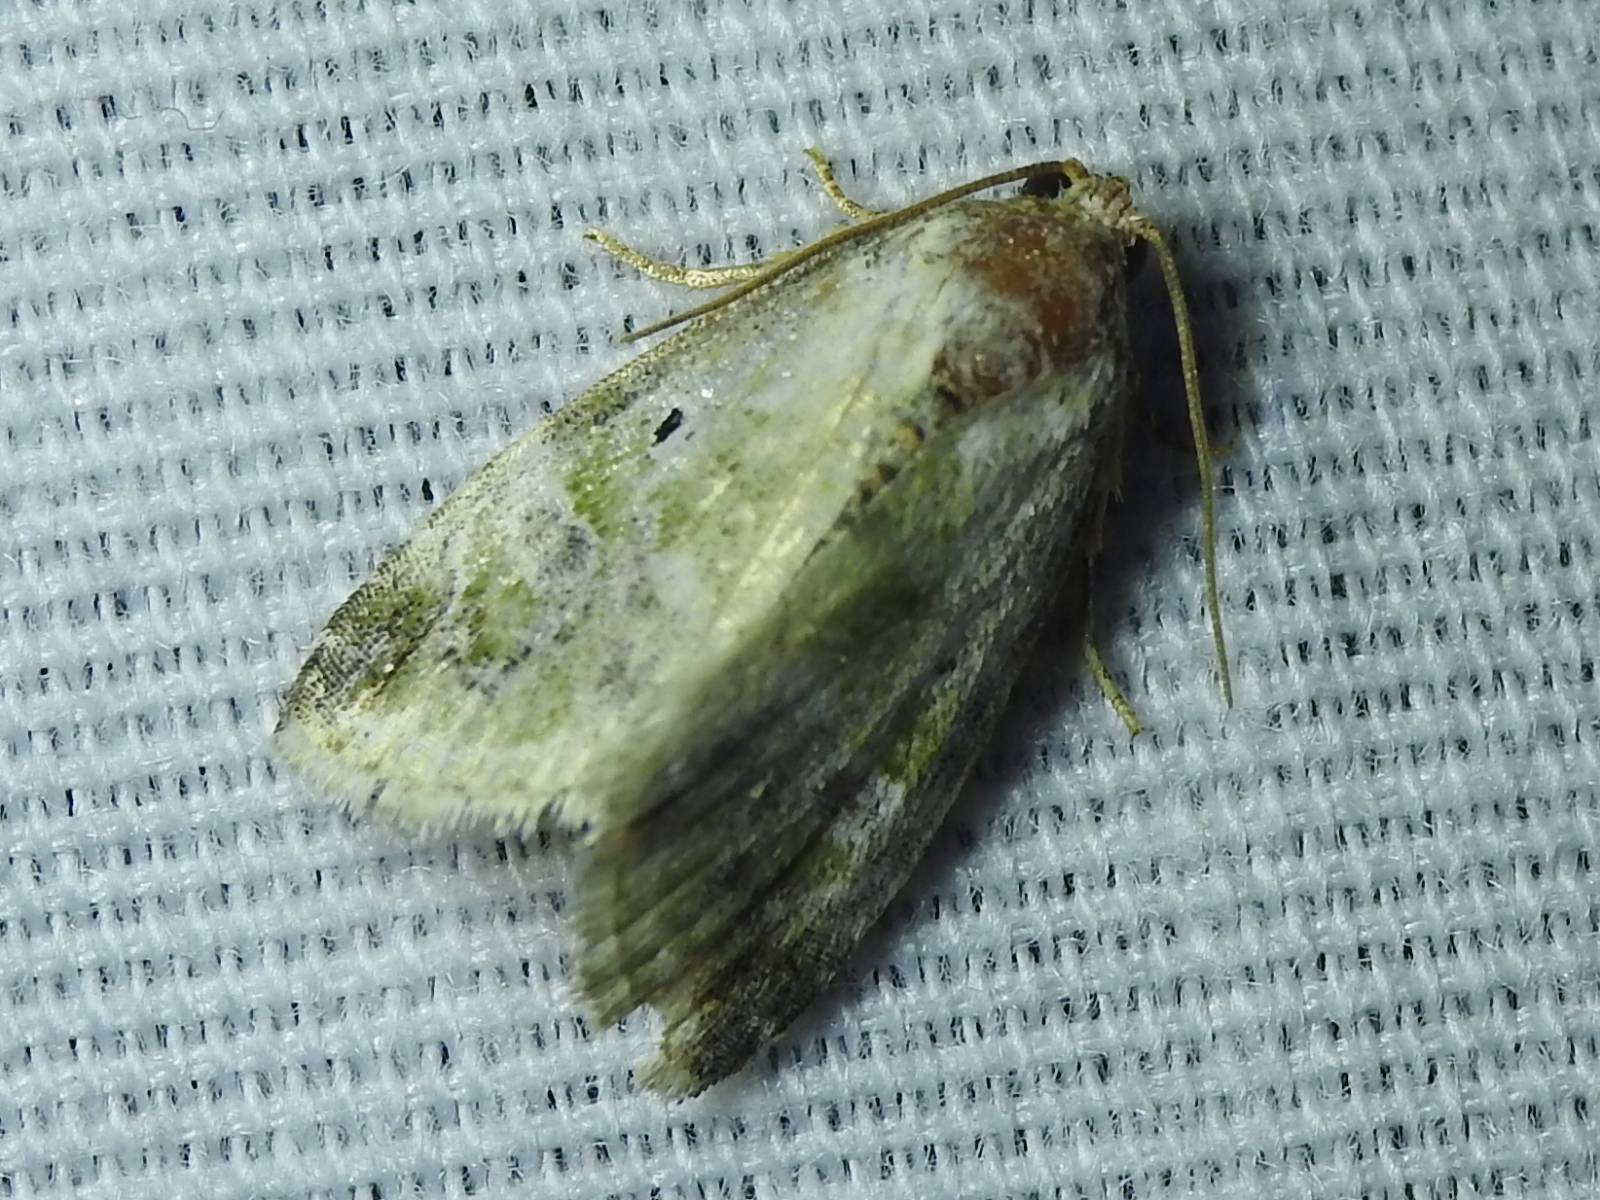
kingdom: Animalia
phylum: Arthropoda
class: Insecta
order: Lepidoptera
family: Noctuidae
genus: Maliattha
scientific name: Maliattha synochitis
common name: Black-dotted glyph
